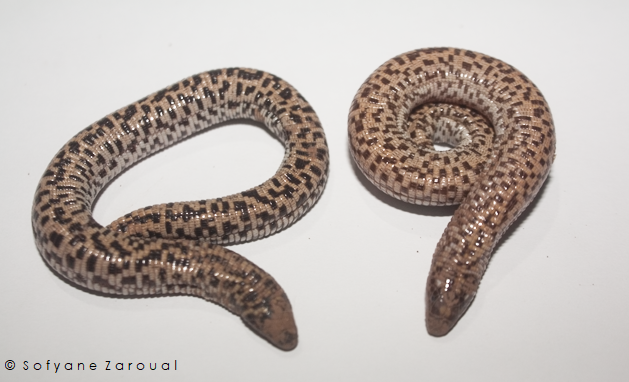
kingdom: Animalia
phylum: Chordata
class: Squamata
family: Trogonophidae
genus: Trogonophis
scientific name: Trogonophis wiegmanni
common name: Checkerboard worm lizard
